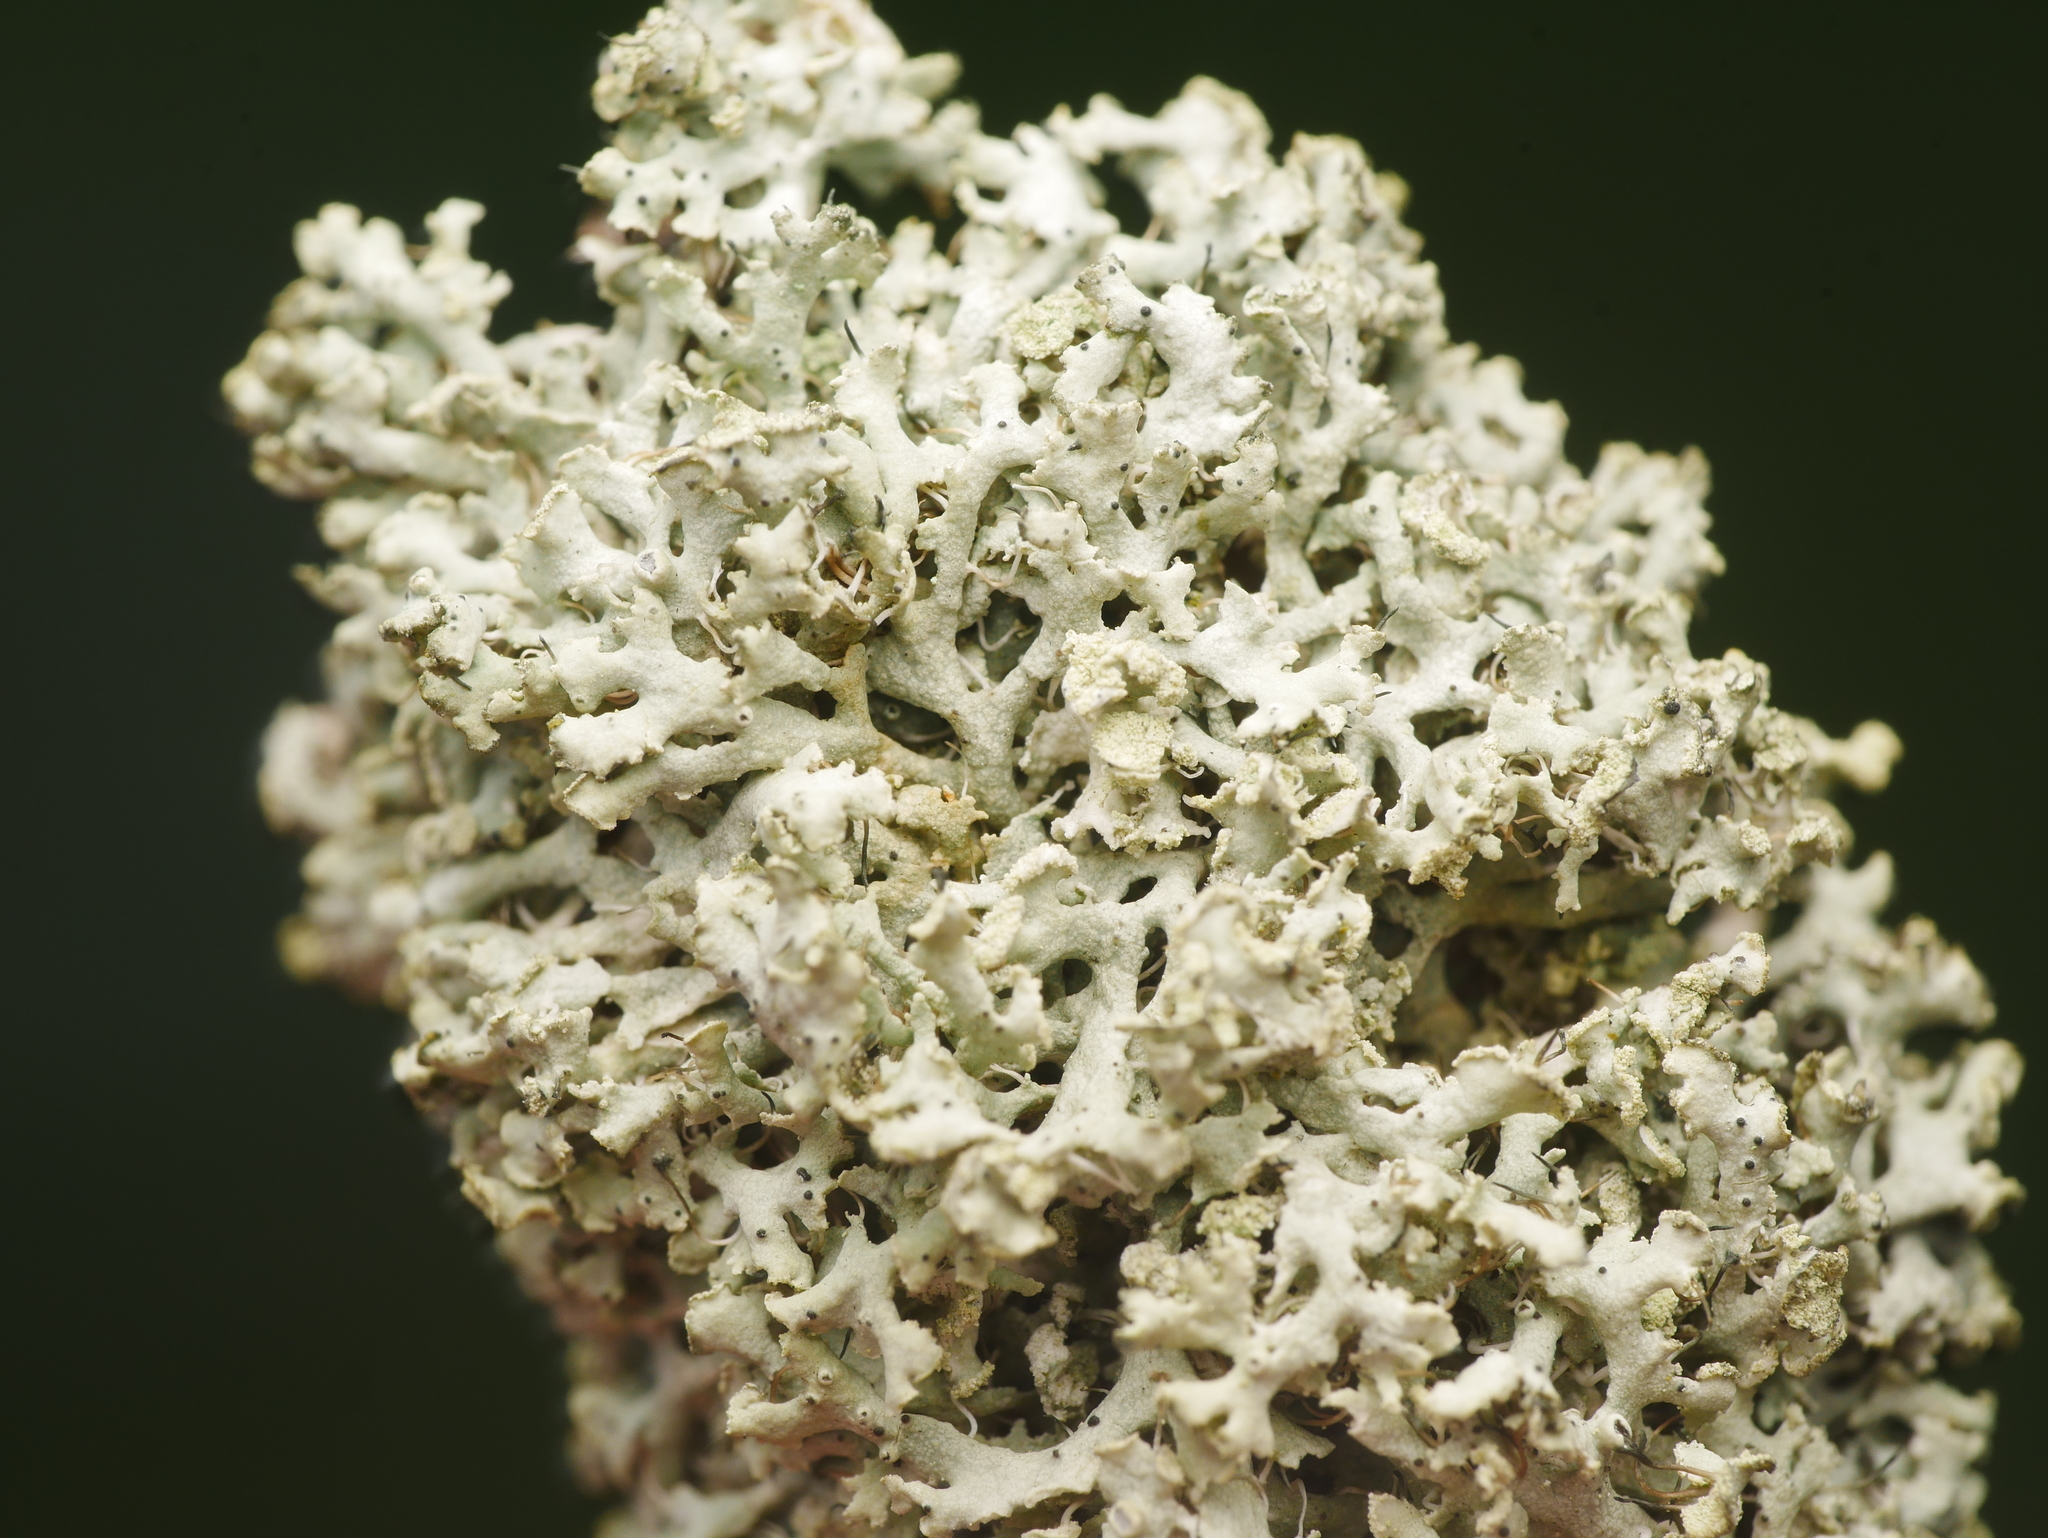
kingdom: Fungi
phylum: Ascomycota
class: Lecanoromycetes
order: Caliciales
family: Physciaceae
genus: Physcia
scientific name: Physcia tenella
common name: Fringed rosette lichen
